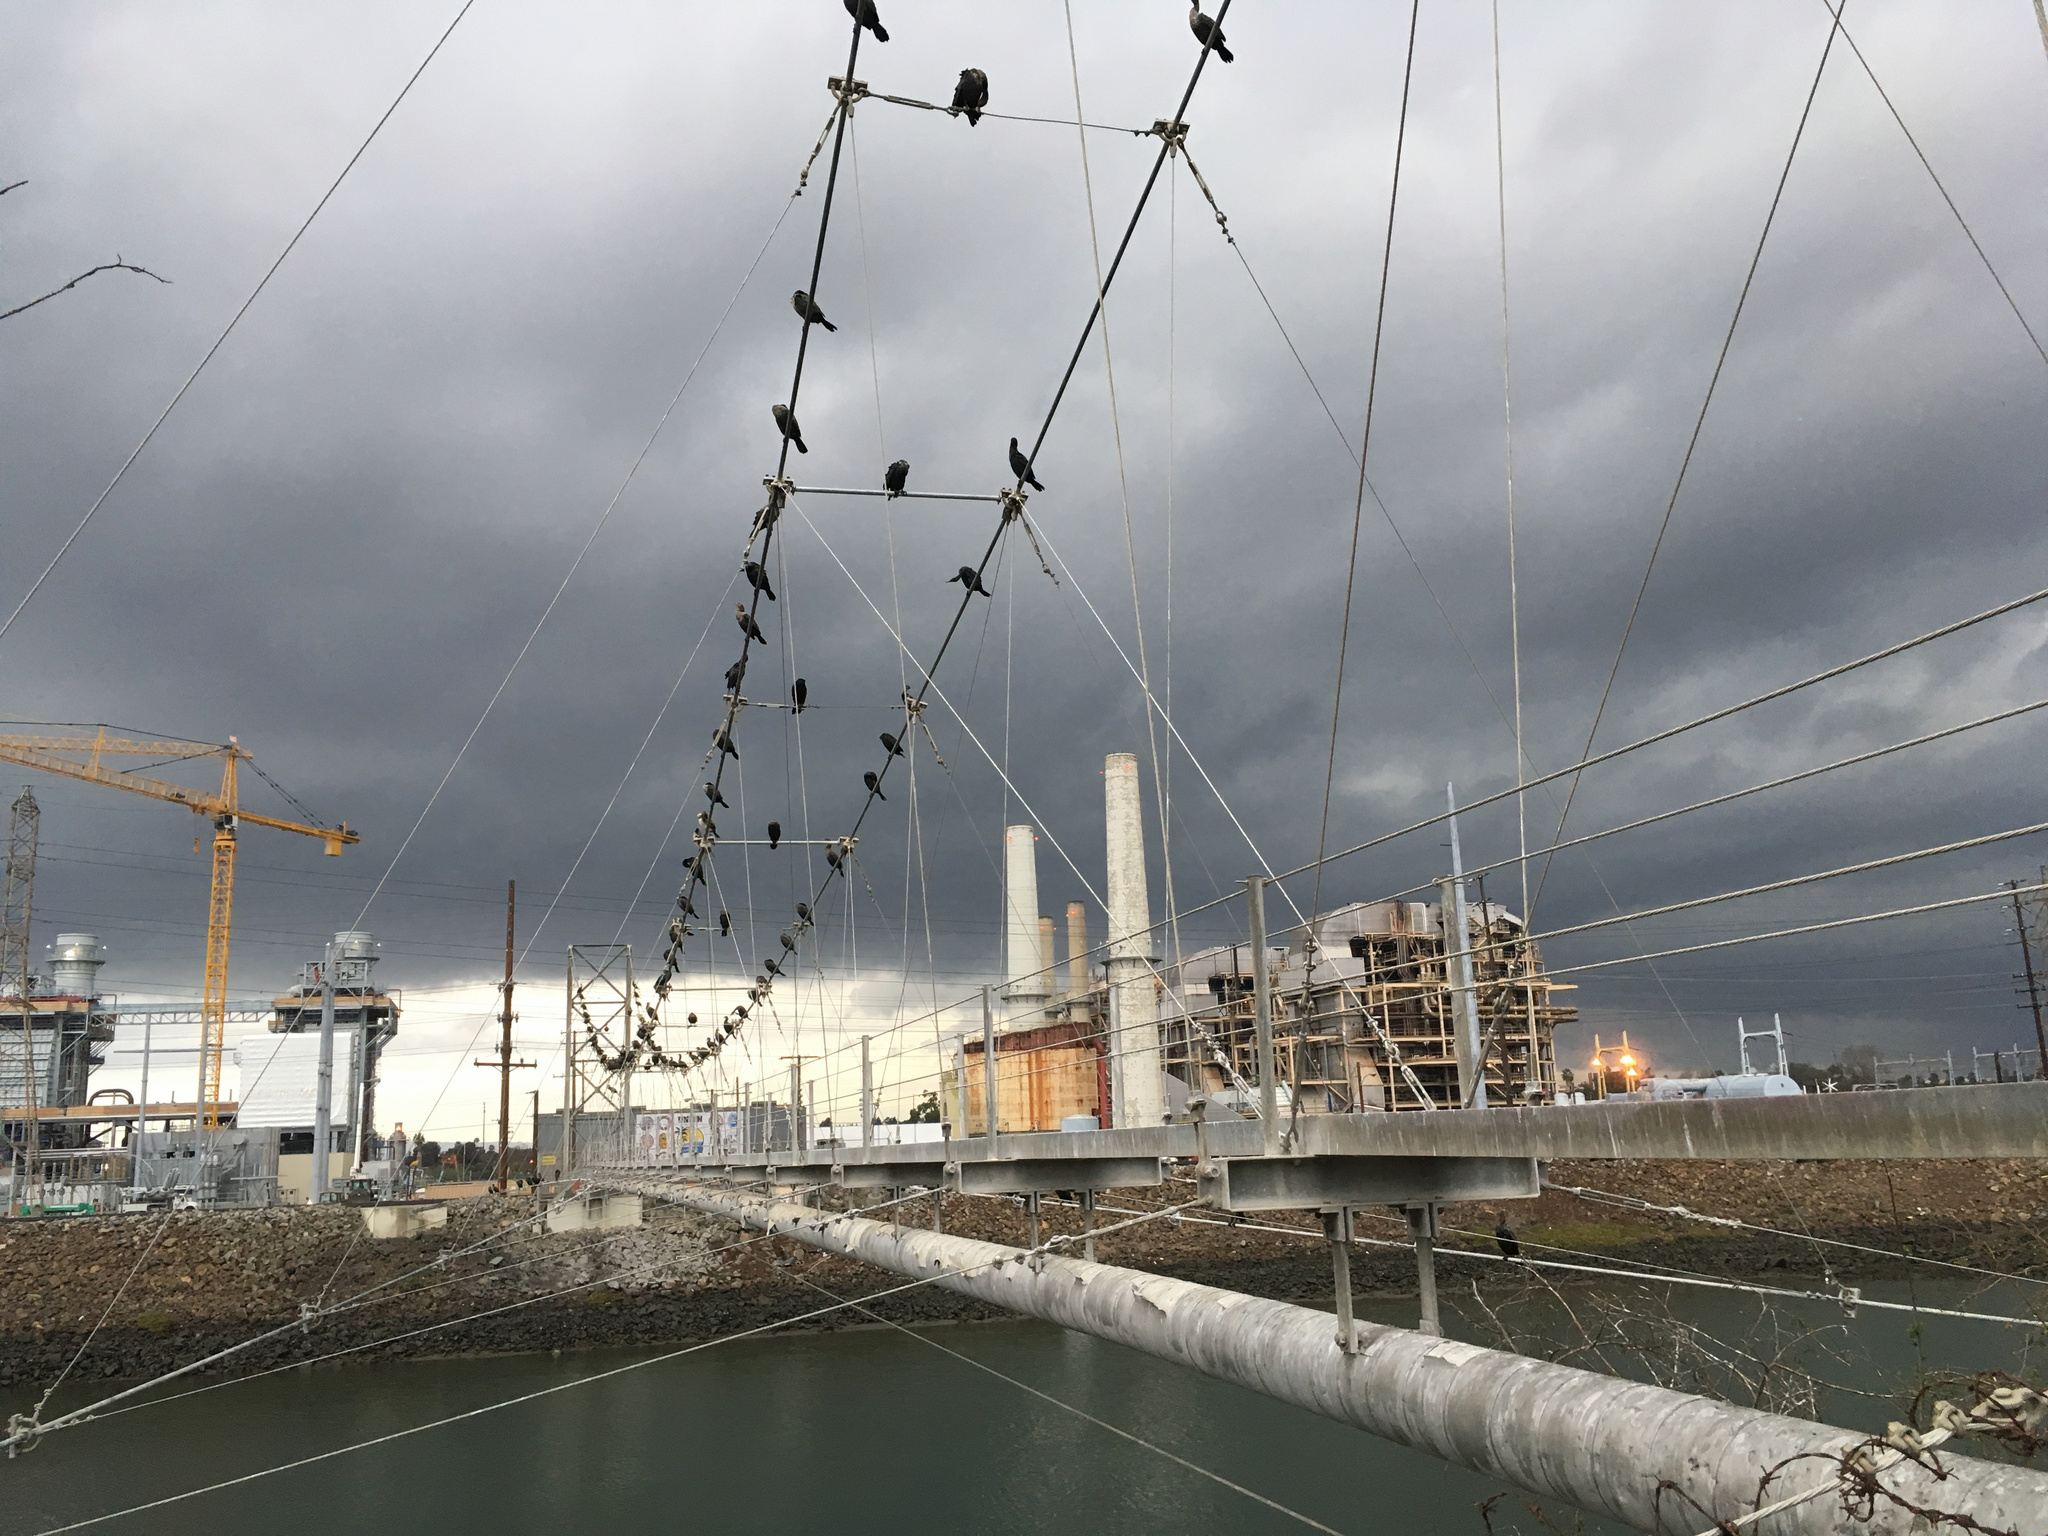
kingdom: Animalia
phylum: Chordata
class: Aves
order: Suliformes
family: Phalacrocoracidae
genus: Phalacrocorax
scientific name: Phalacrocorax auritus
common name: Double-crested cormorant
